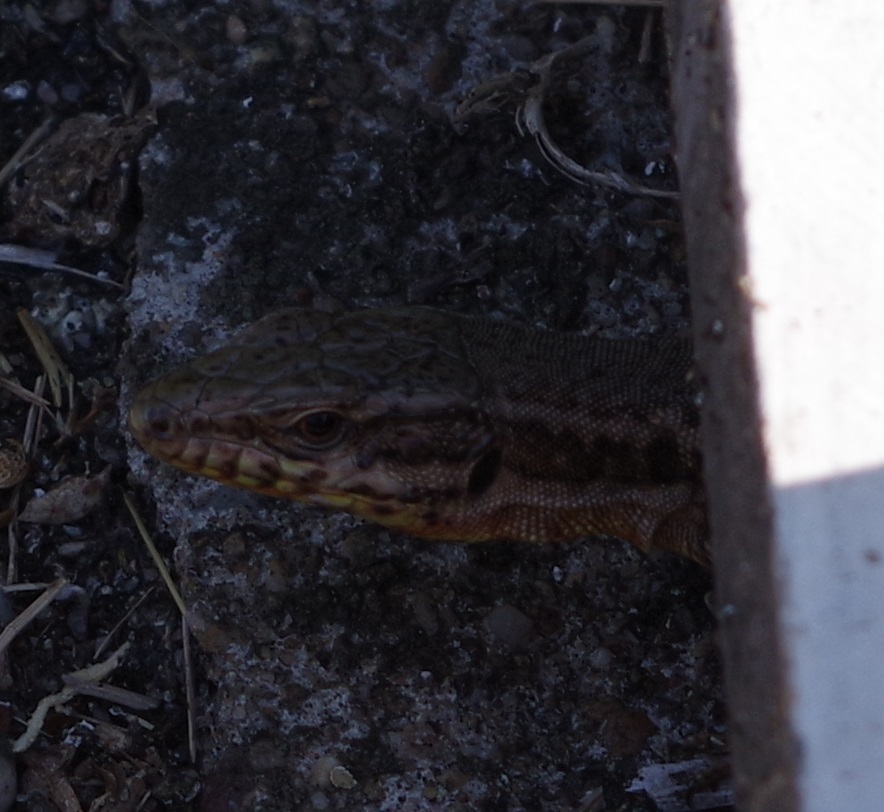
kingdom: Animalia
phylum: Chordata
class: Squamata
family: Lacertidae
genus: Podarcis
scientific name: Podarcis muralis
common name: Common wall lizard
